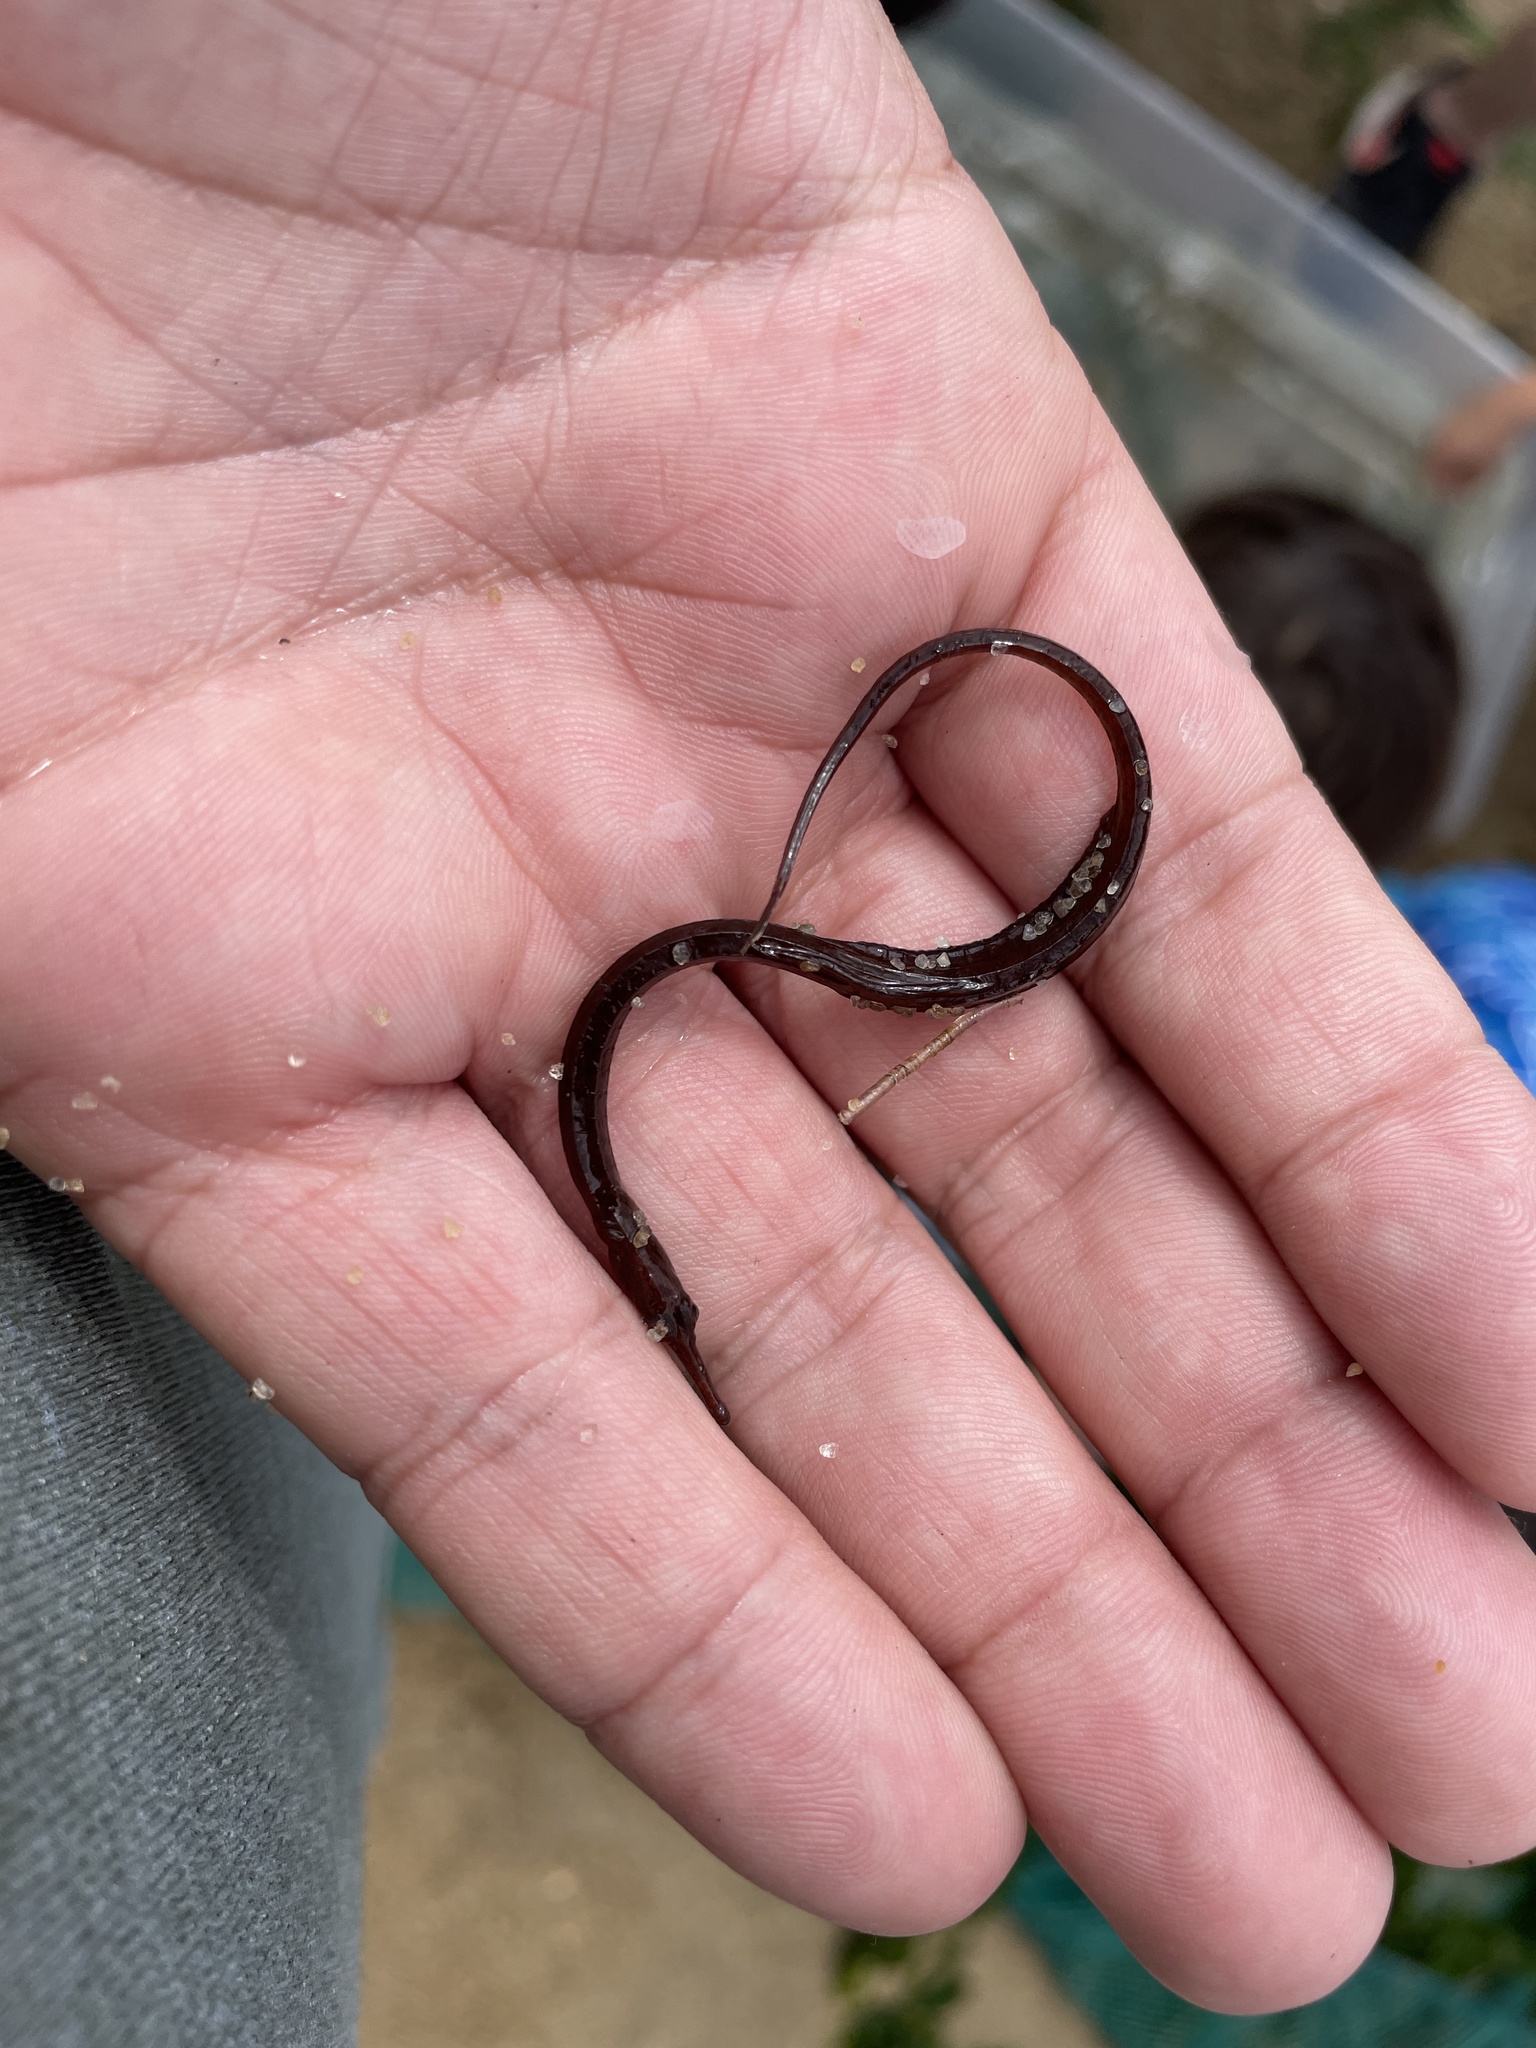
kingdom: Animalia
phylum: Chordata
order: Syngnathiformes
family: Syngnathidae
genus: Syngnathus
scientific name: Syngnathus fuscus
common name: Northern pipefish
